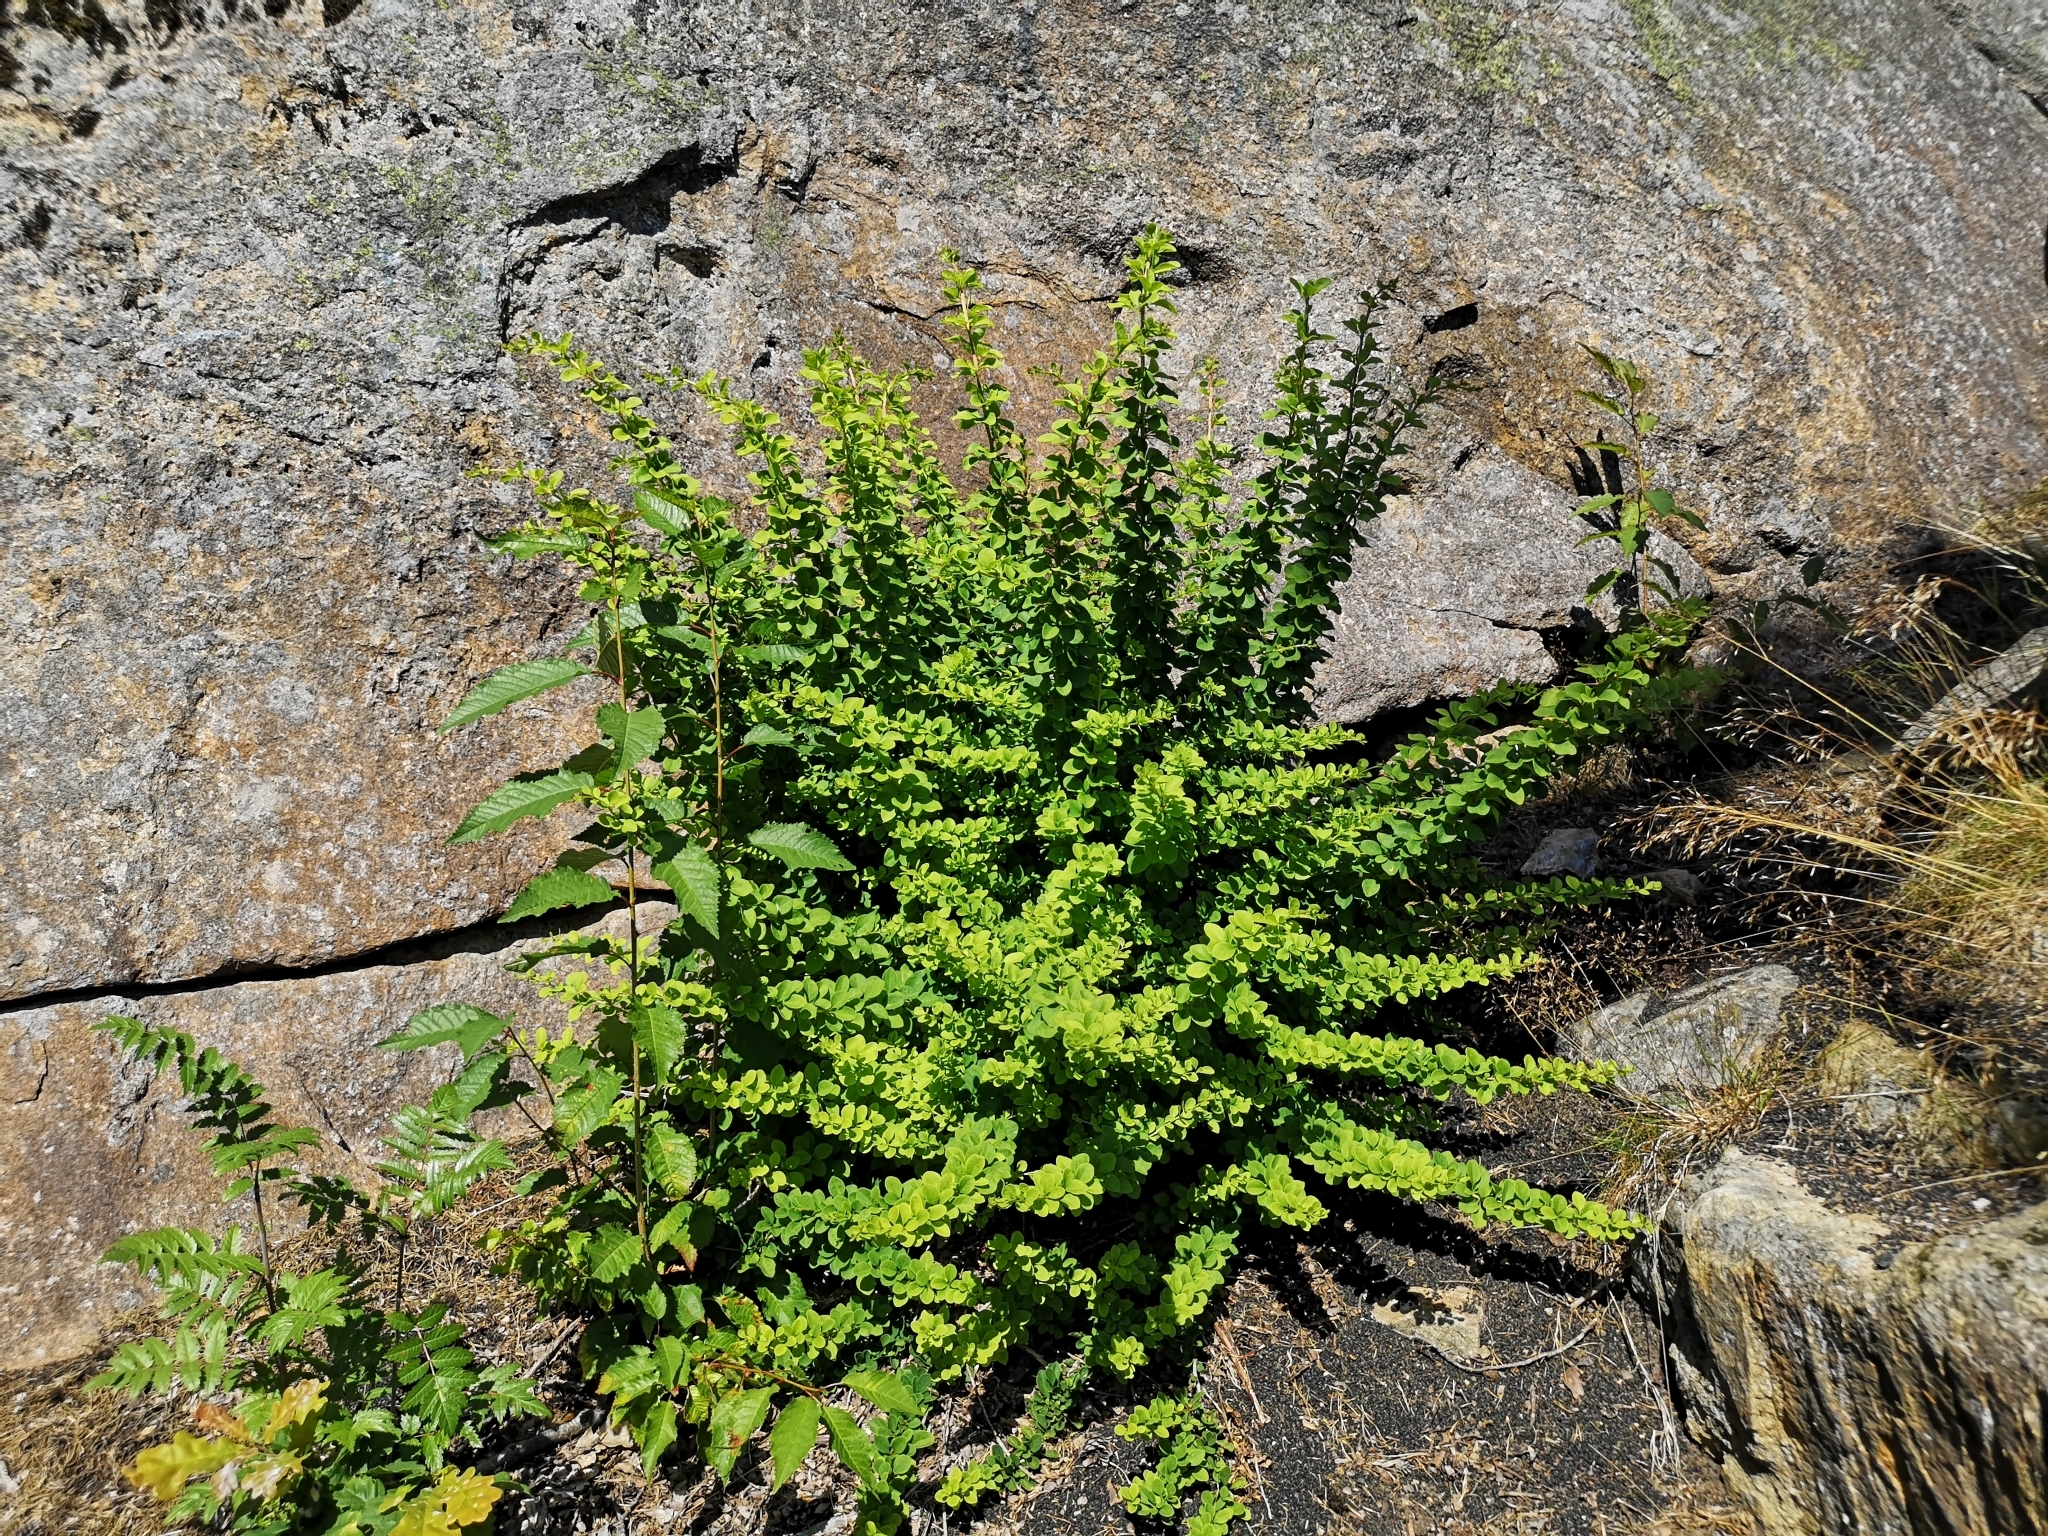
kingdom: Plantae
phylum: Tracheophyta
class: Magnoliopsida
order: Ranunculales
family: Berberidaceae
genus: Berberis
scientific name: Berberis thunbergii
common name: Japanese barberry
